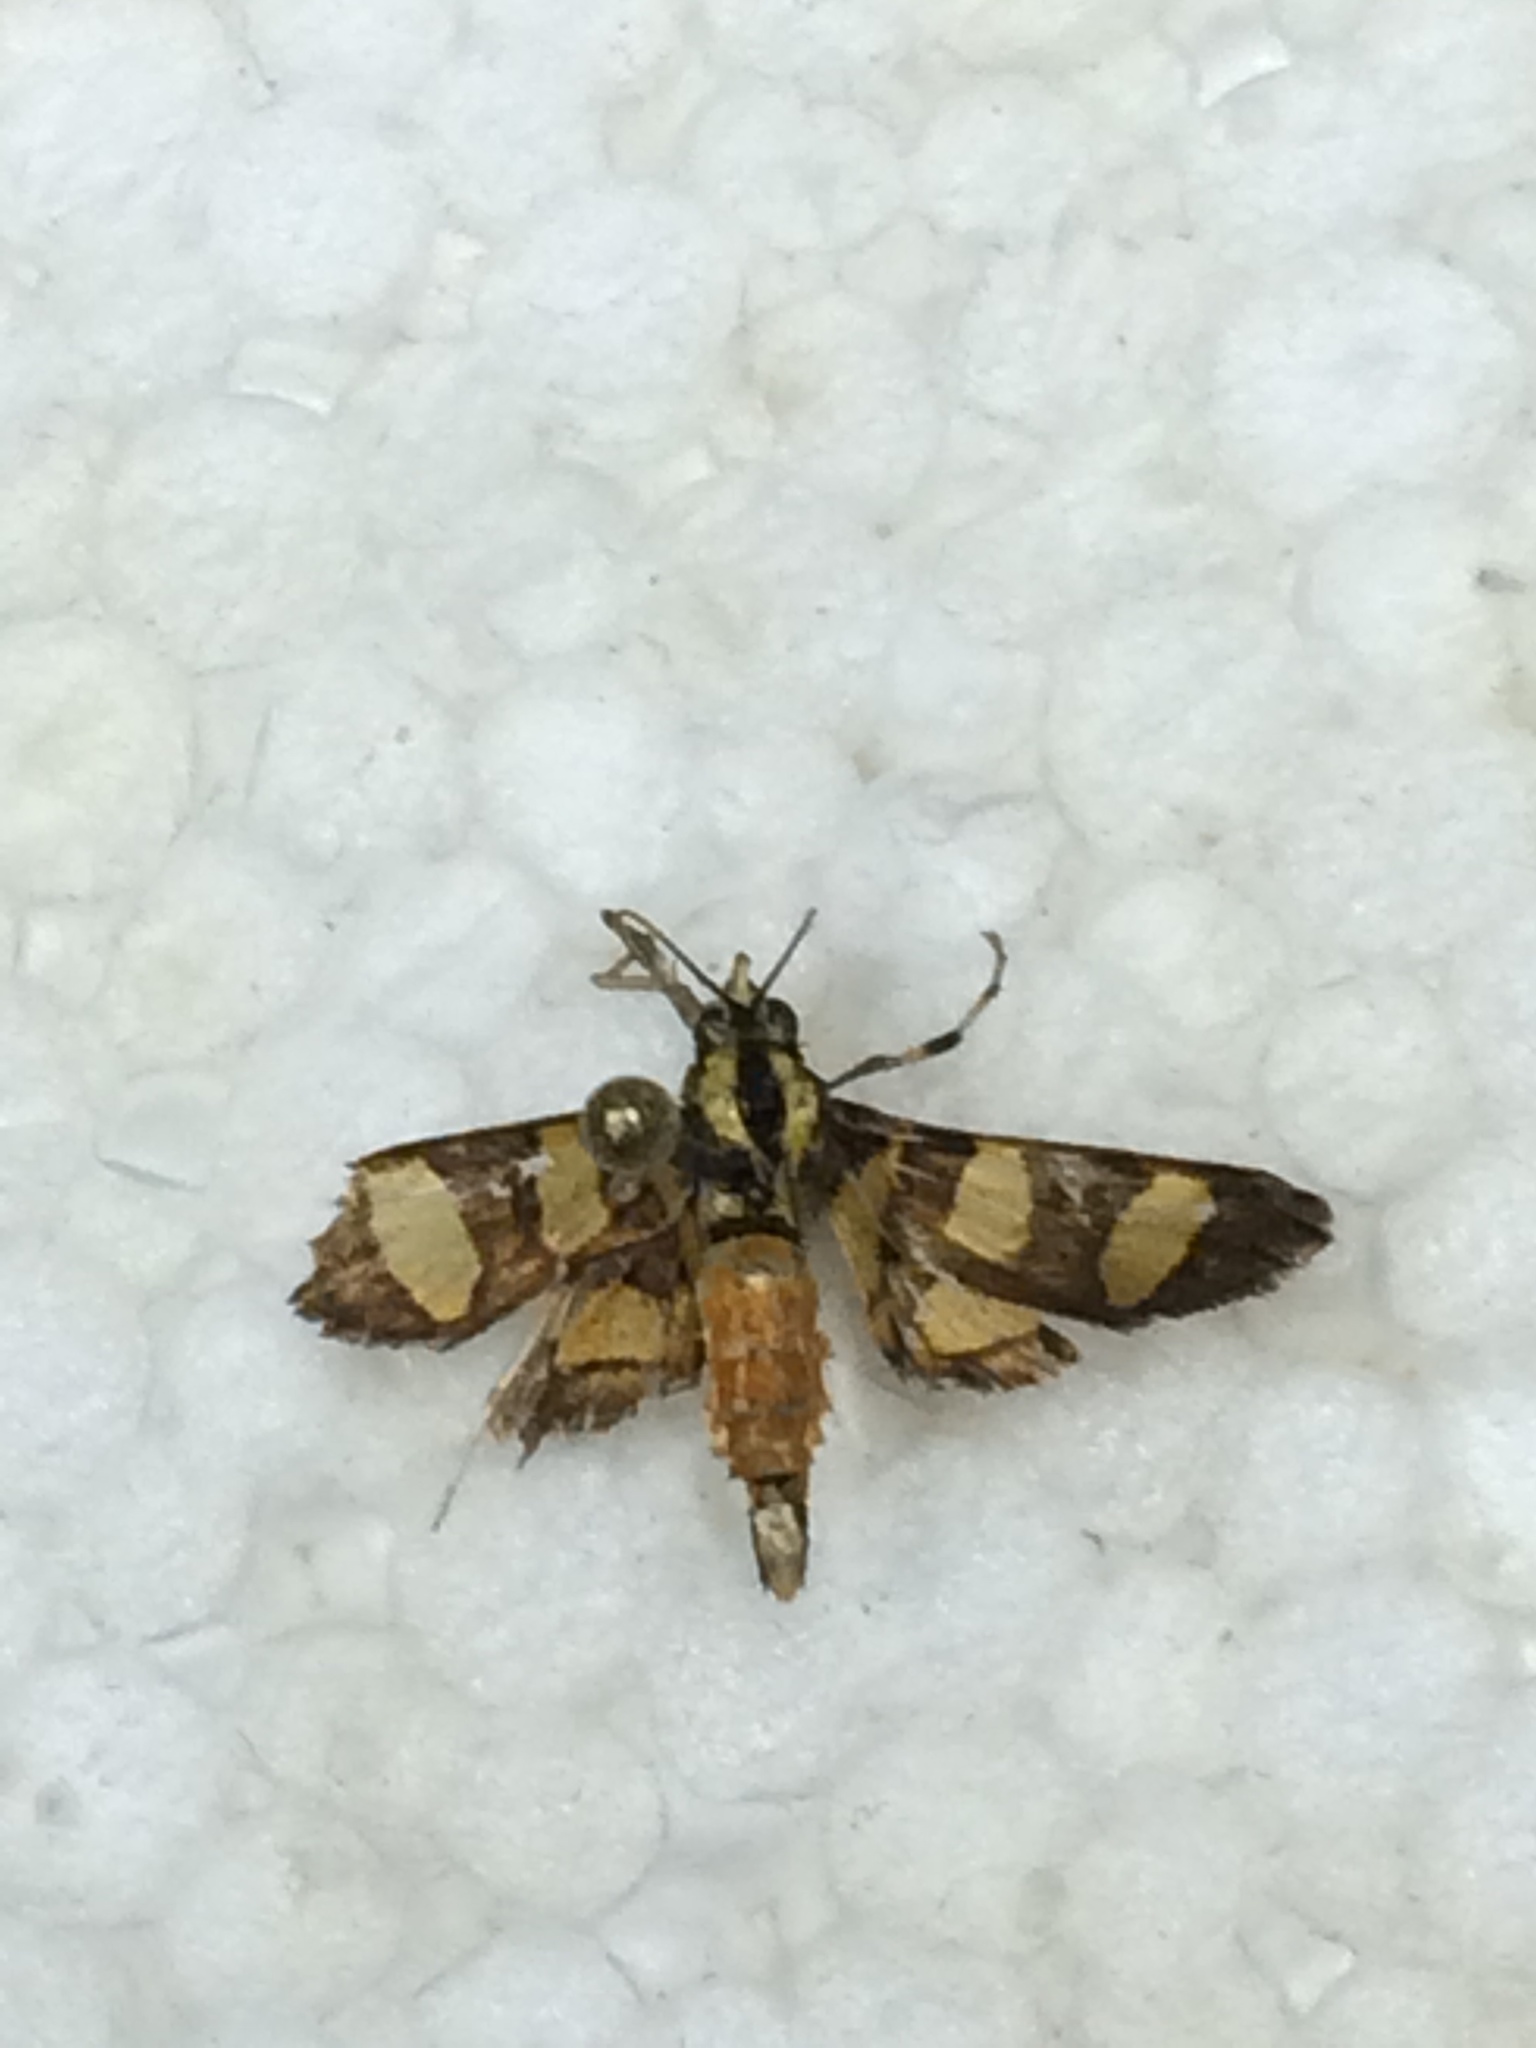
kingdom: Animalia
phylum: Arthropoda
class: Insecta
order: Lepidoptera
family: Crambidae
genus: Syngamia
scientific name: Syngamia florella
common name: Orange-spotted flower moth
